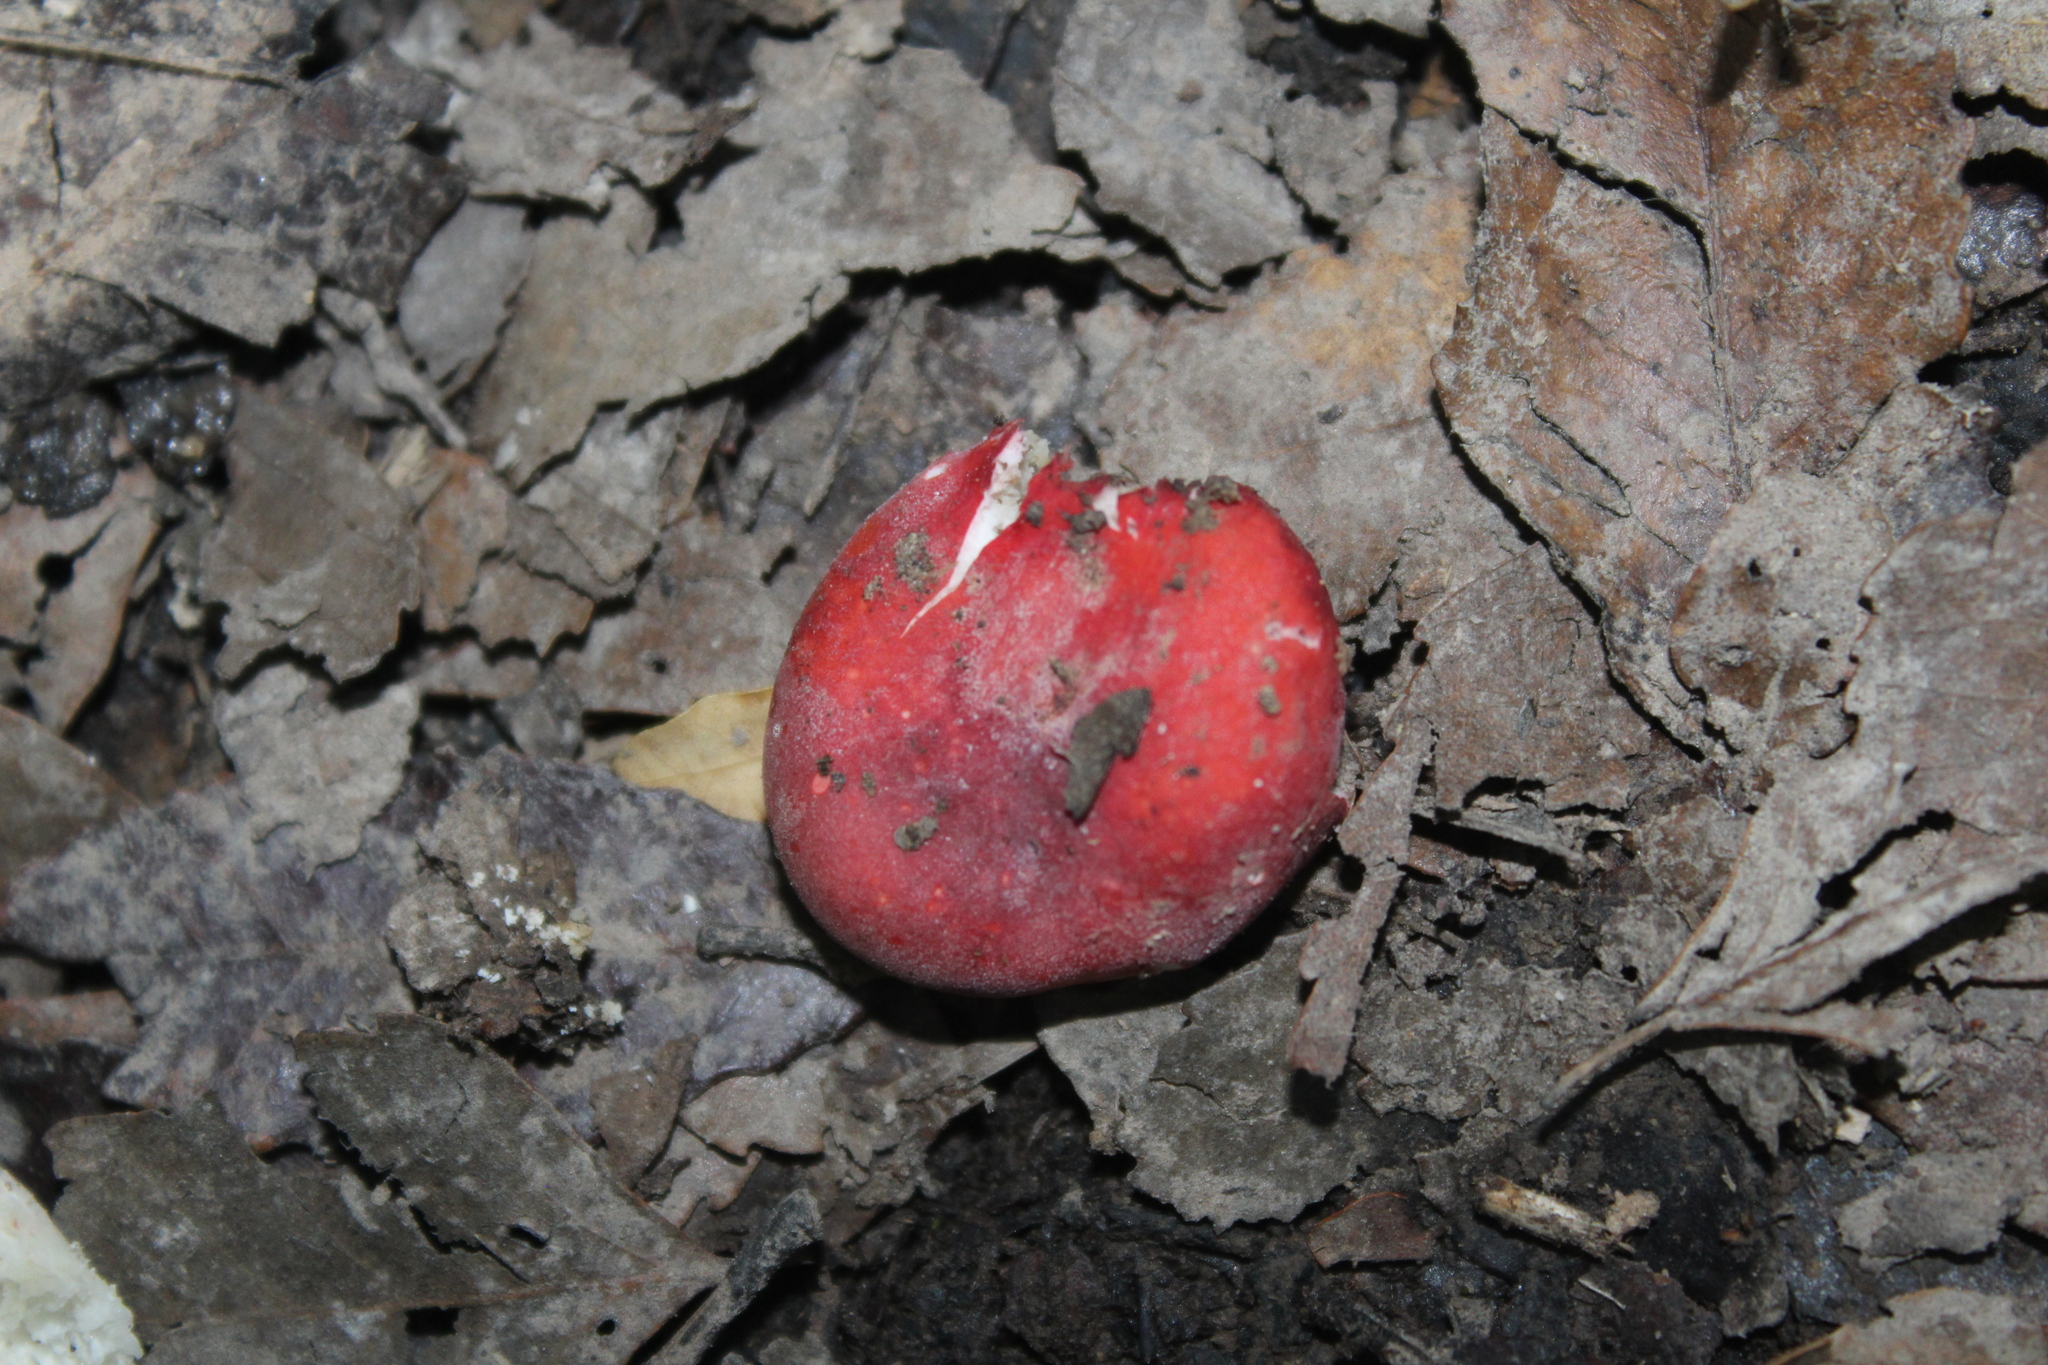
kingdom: Fungi
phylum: Basidiomycota
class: Agaricomycetes
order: Russulales
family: Russulaceae
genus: Russula
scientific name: Russula kermesina
